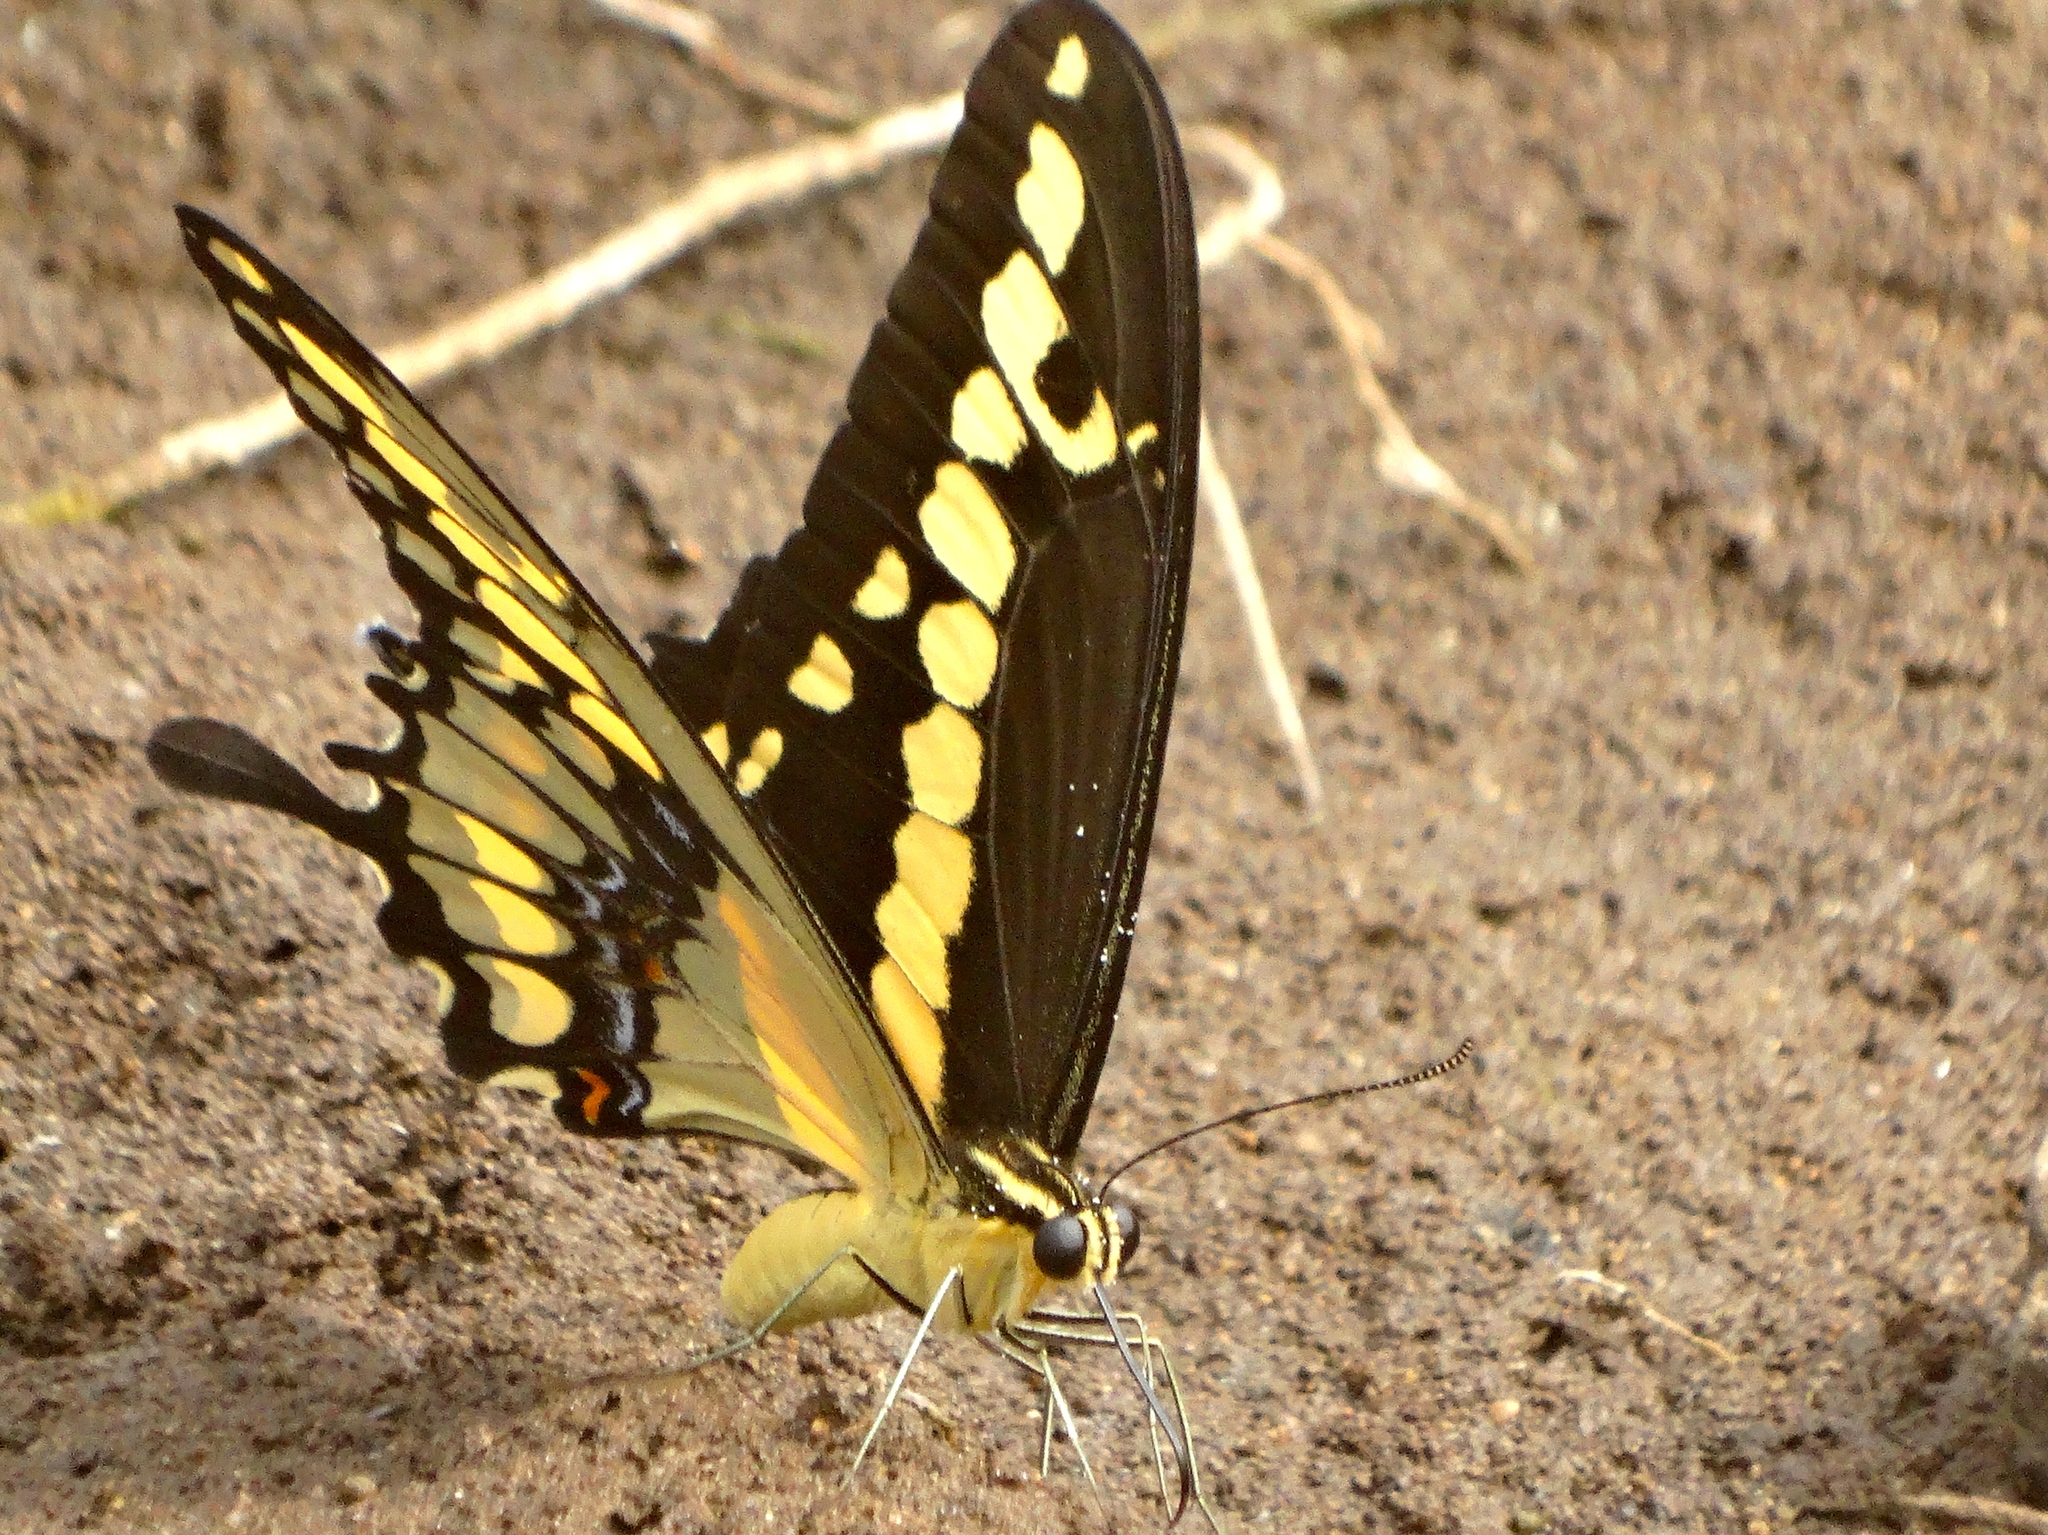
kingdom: Animalia
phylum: Arthropoda
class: Insecta
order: Lepidoptera
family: Papilionidae
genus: Papilio
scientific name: Papilio rumiko
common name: Western giant swallowtail
